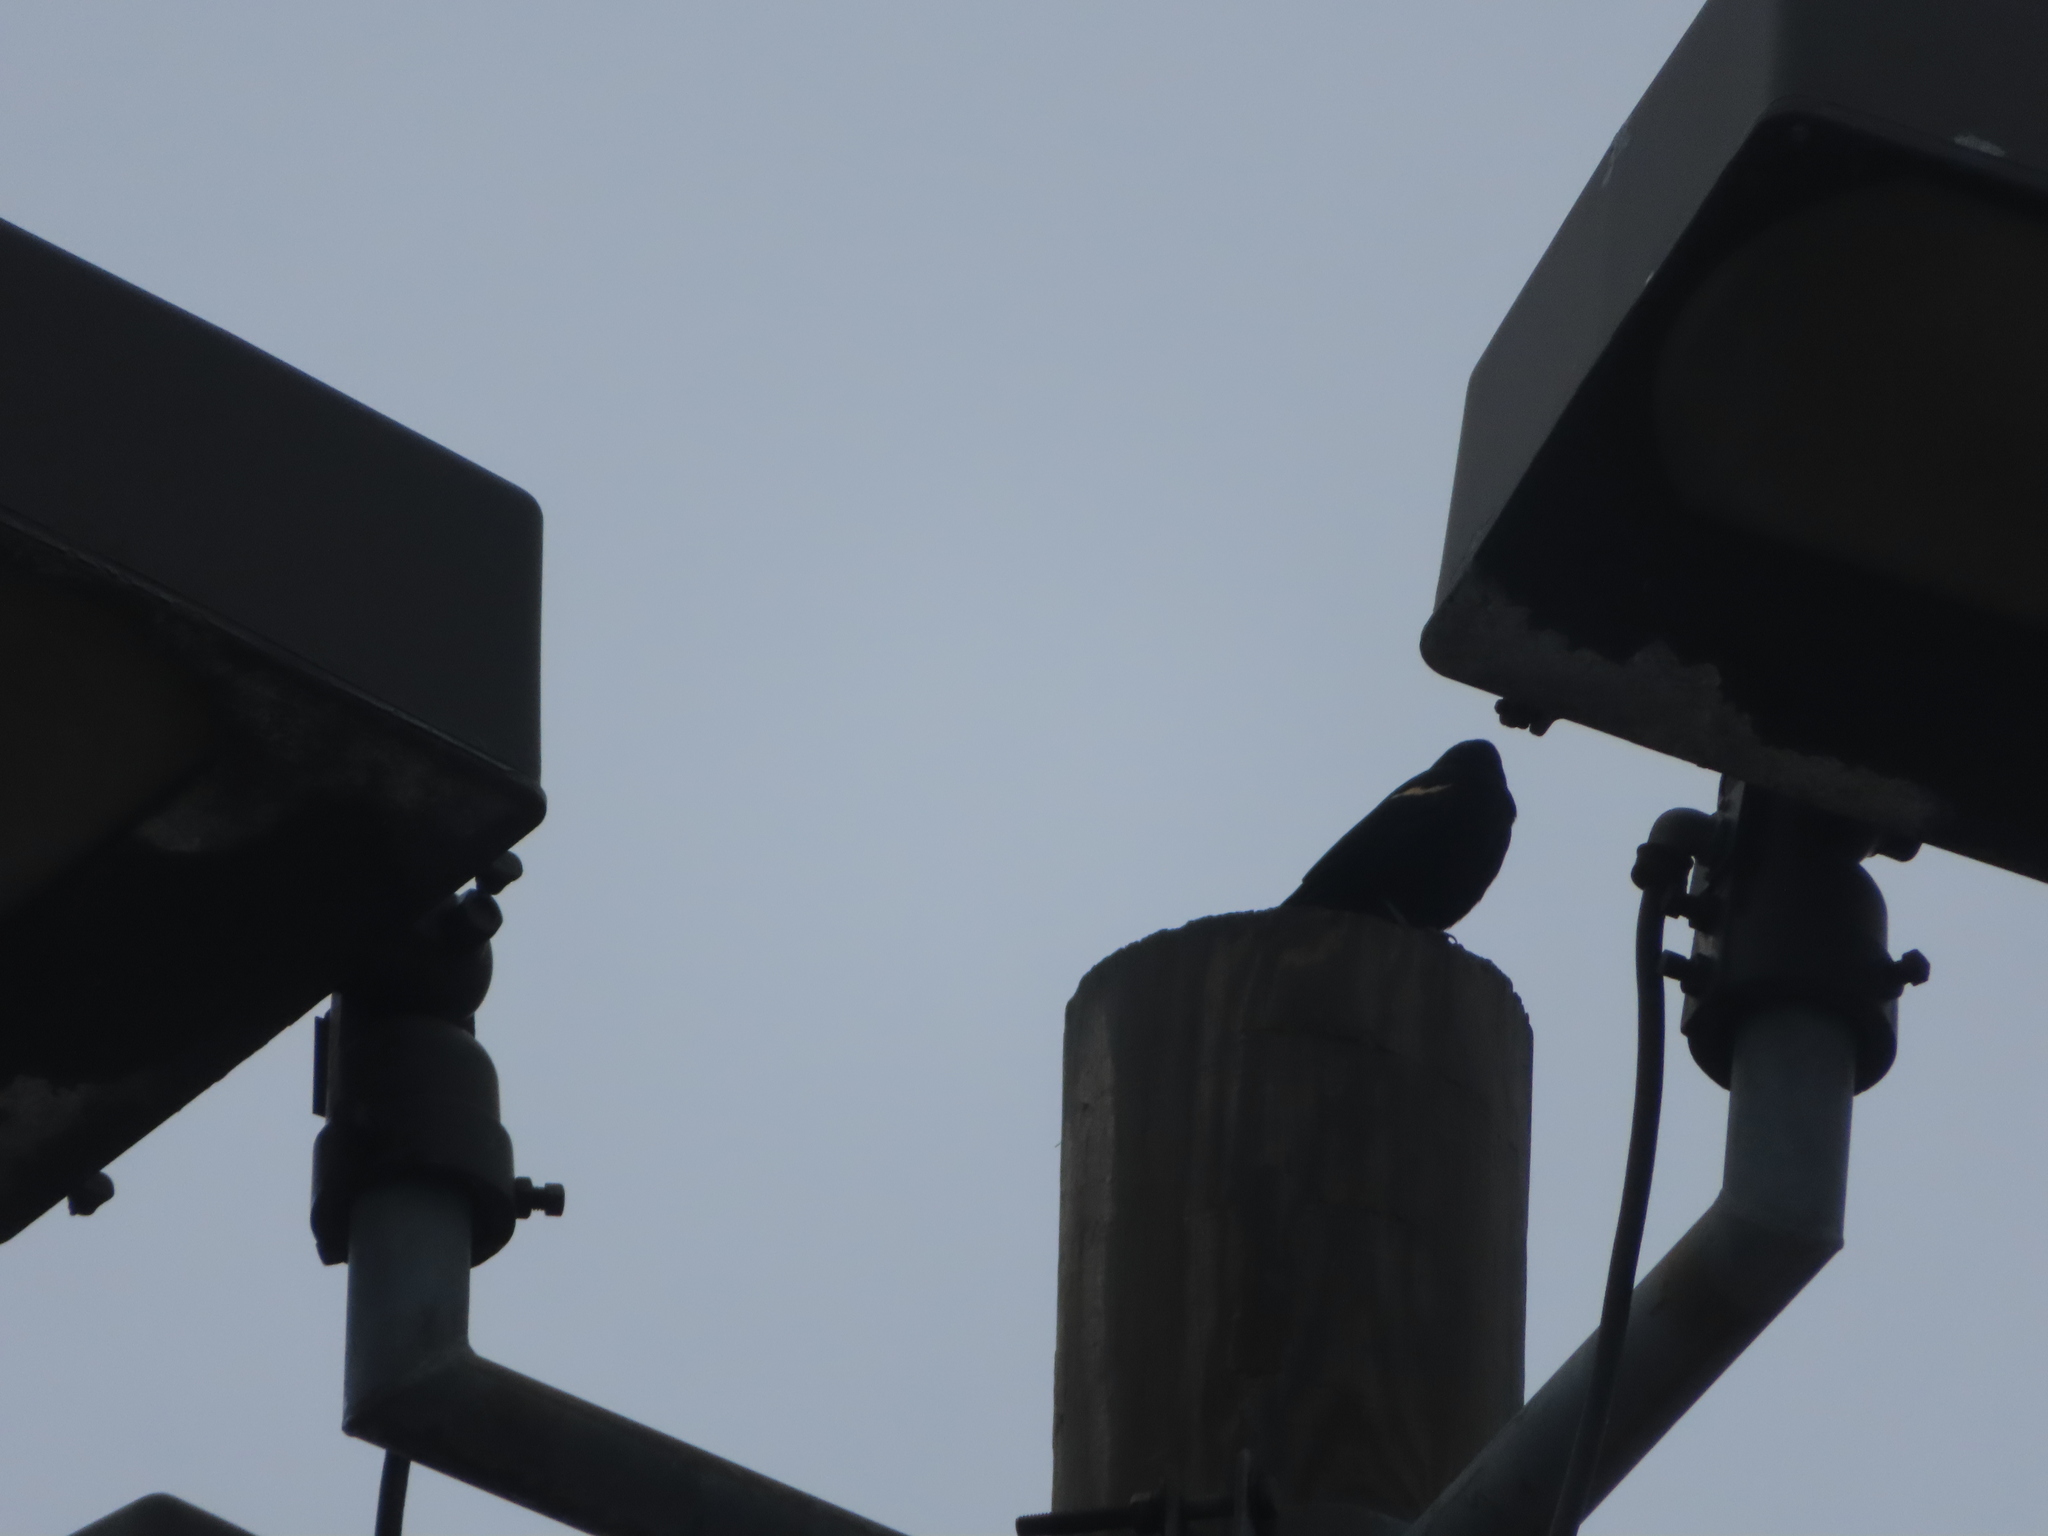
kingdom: Animalia
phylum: Chordata
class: Aves
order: Passeriformes
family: Icteridae
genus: Agelaius
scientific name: Agelaius phoeniceus
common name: Red-winged blackbird
